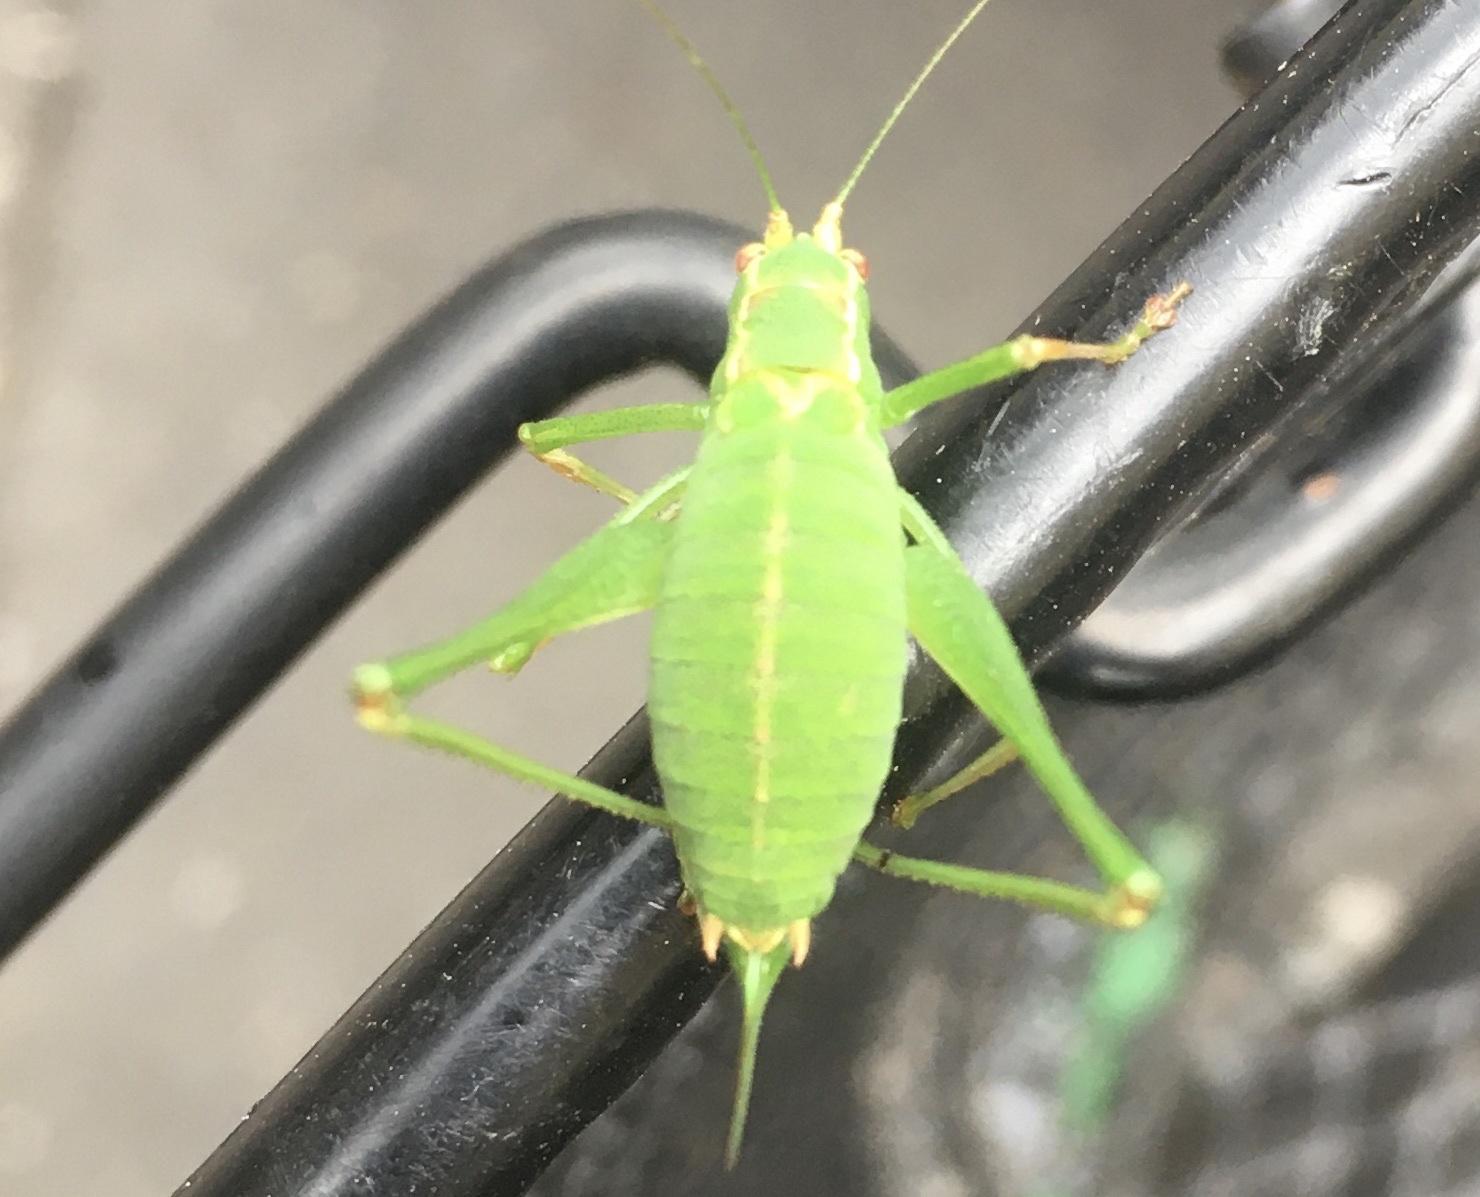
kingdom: Animalia
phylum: Arthropoda
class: Insecta
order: Orthoptera
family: Tettigoniidae
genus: Leptophyes
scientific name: Leptophyes punctatissima
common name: Speckled bush-cricket
